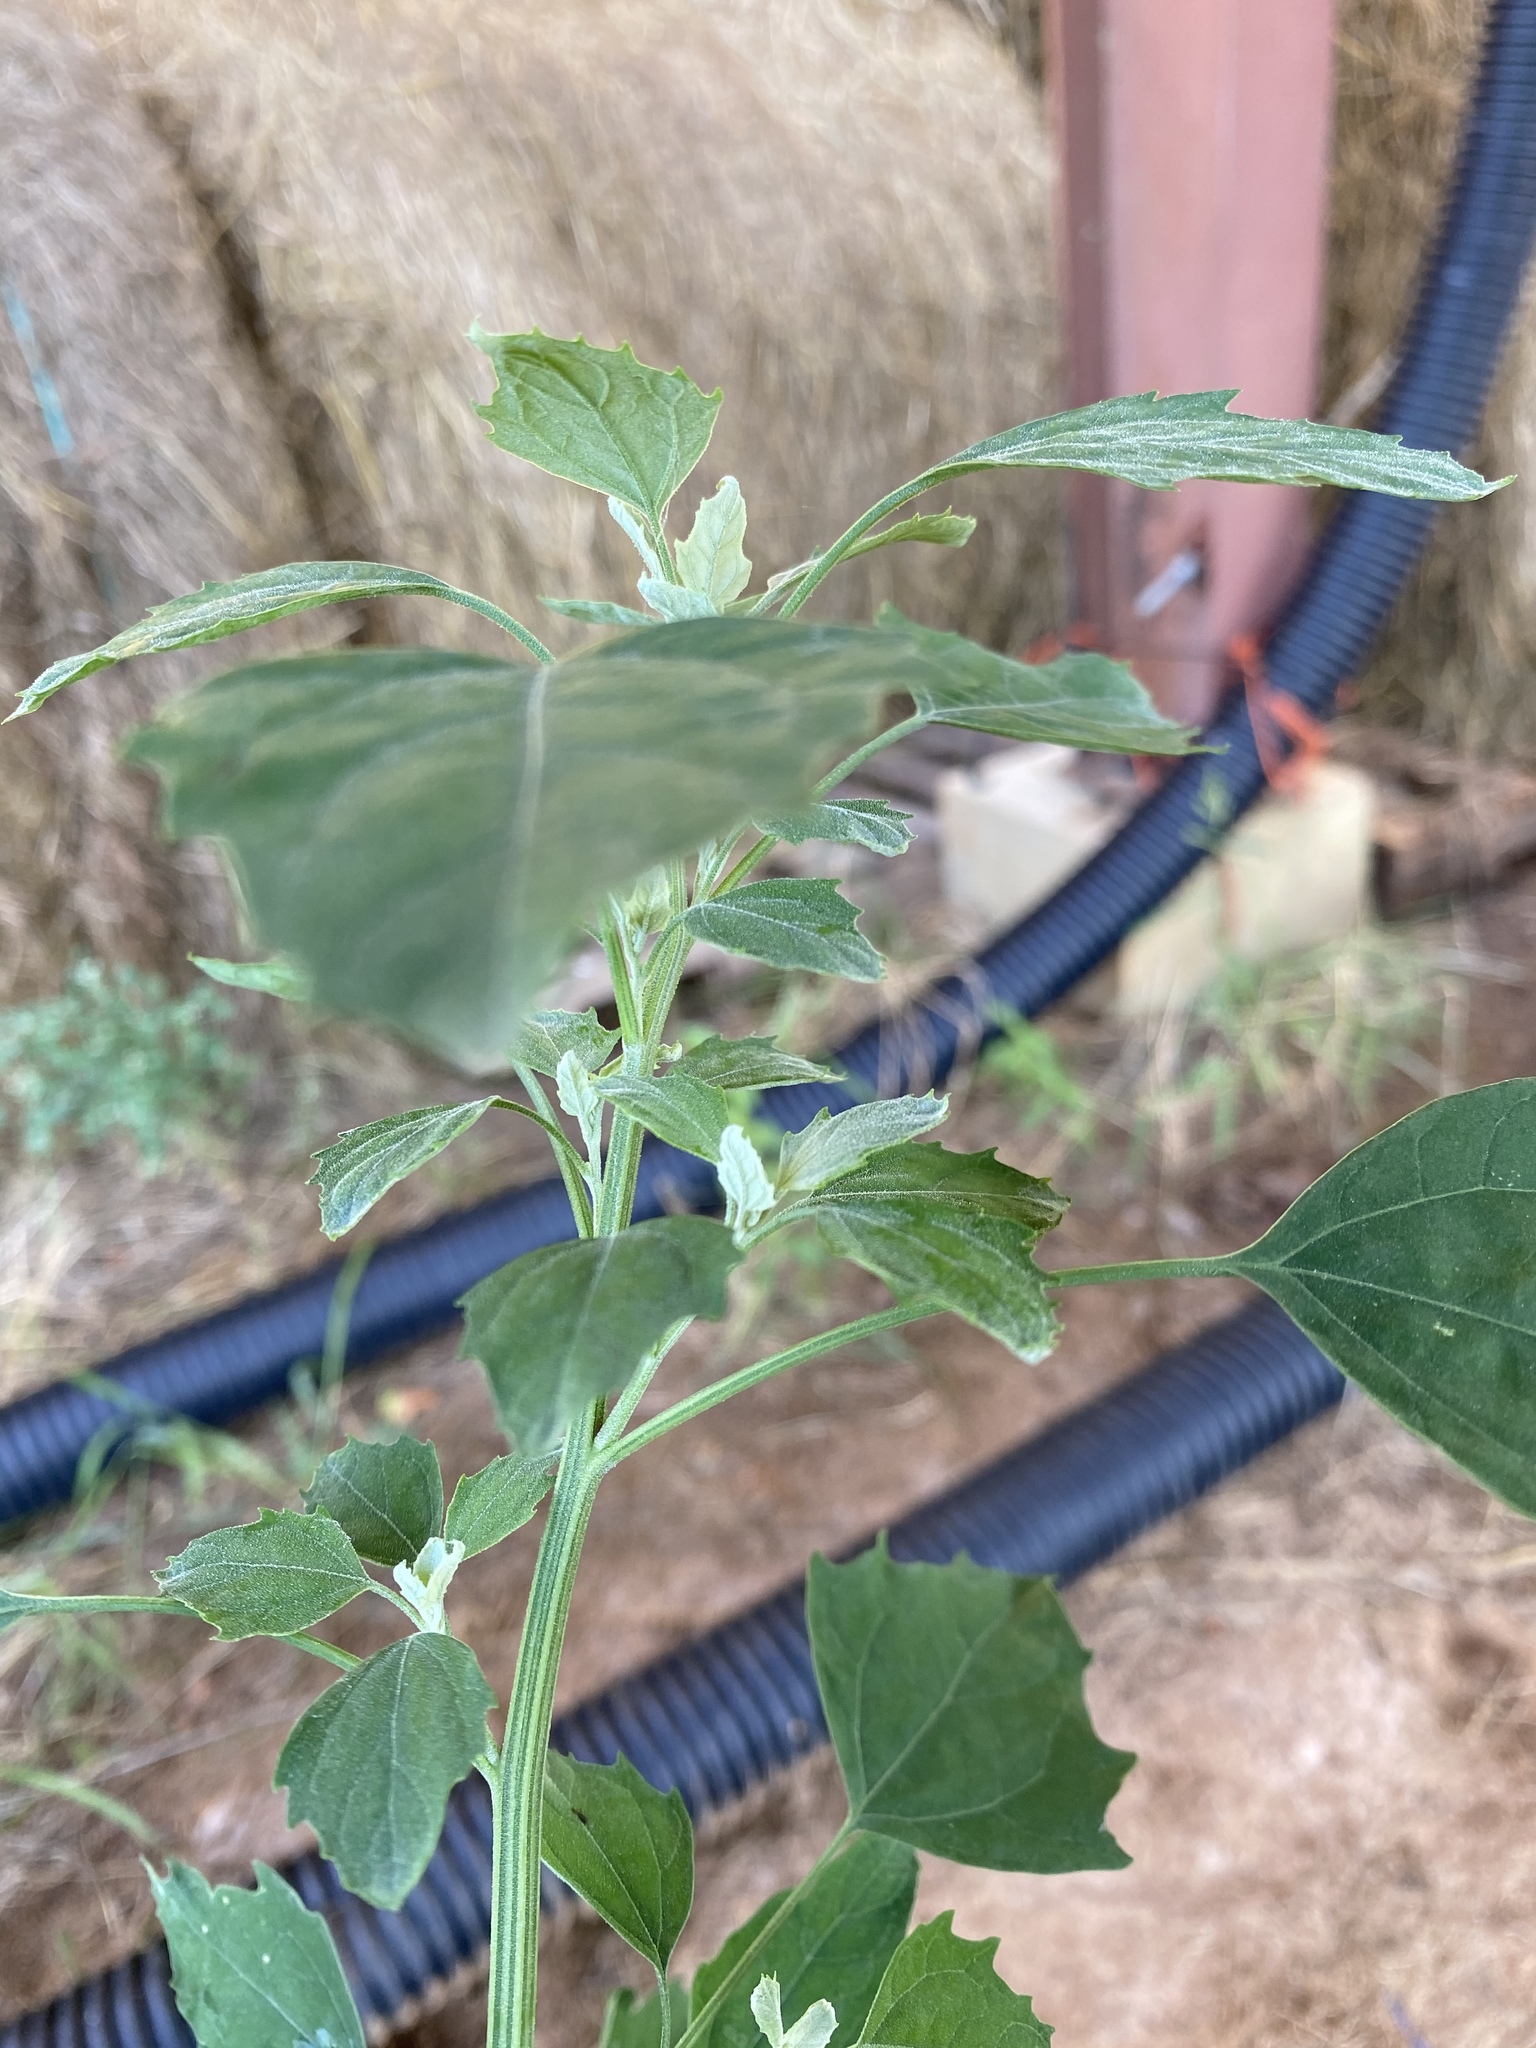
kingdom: Plantae
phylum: Tracheophyta
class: Magnoliopsida
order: Caryophyllales
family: Amaranthaceae
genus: Chenopodium
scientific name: Chenopodium album
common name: Fat-hen
